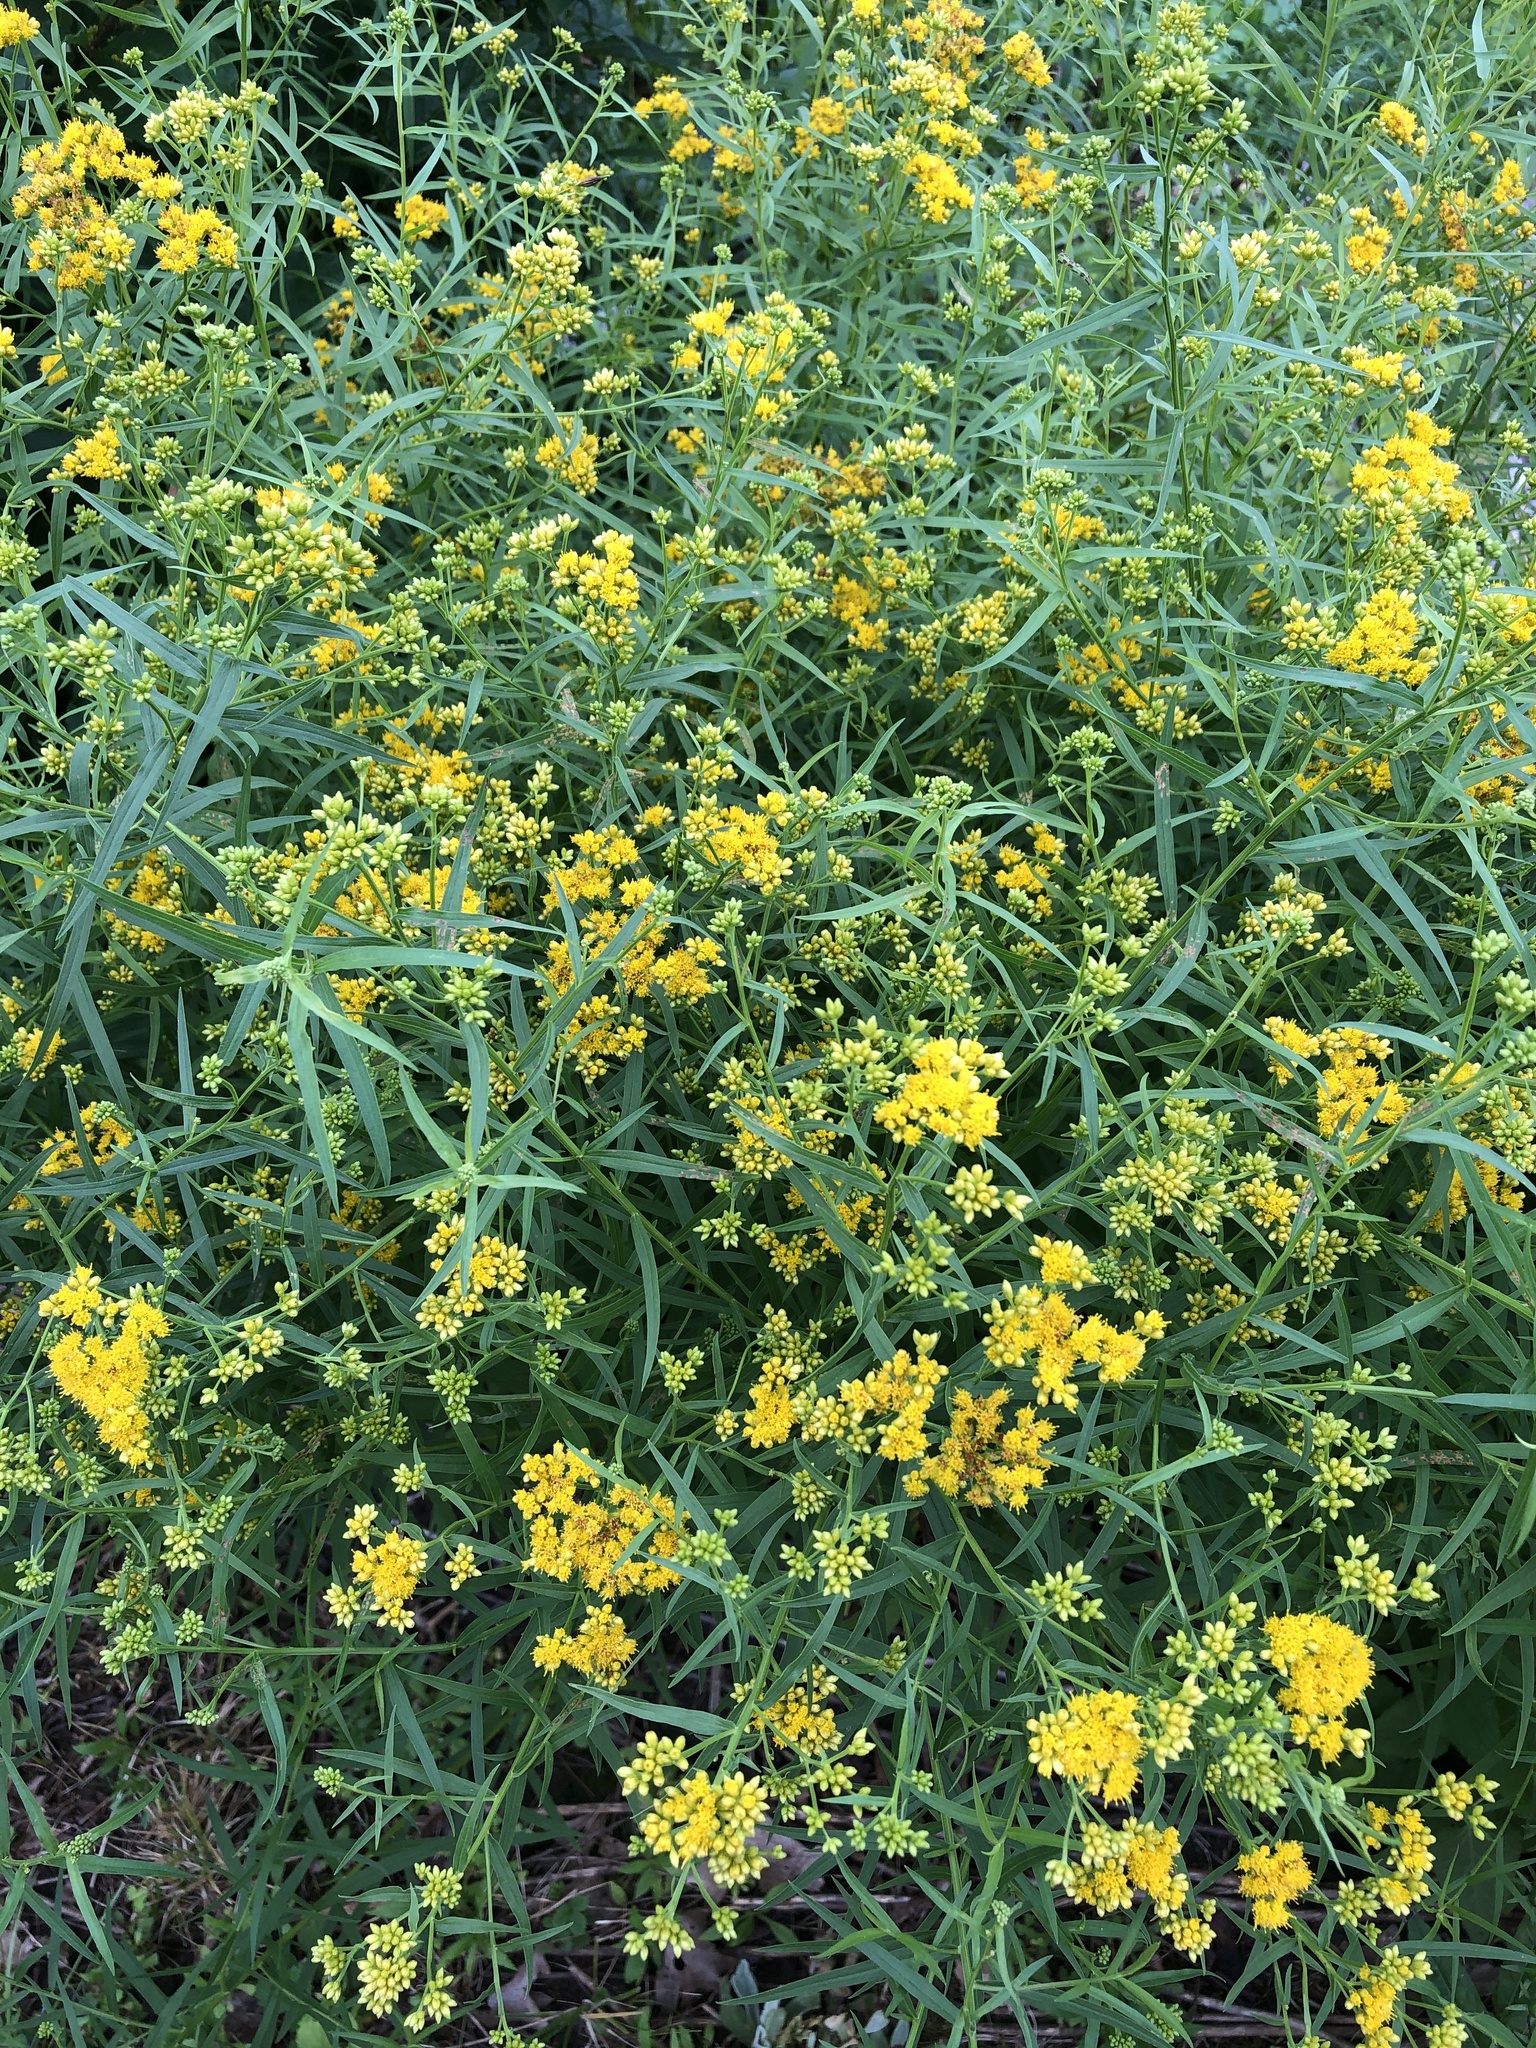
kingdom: Plantae
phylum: Tracheophyta
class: Magnoliopsida
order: Asterales
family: Asteraceae
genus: Euthamia
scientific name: Euthamia graminifolia
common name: Common goldentop
